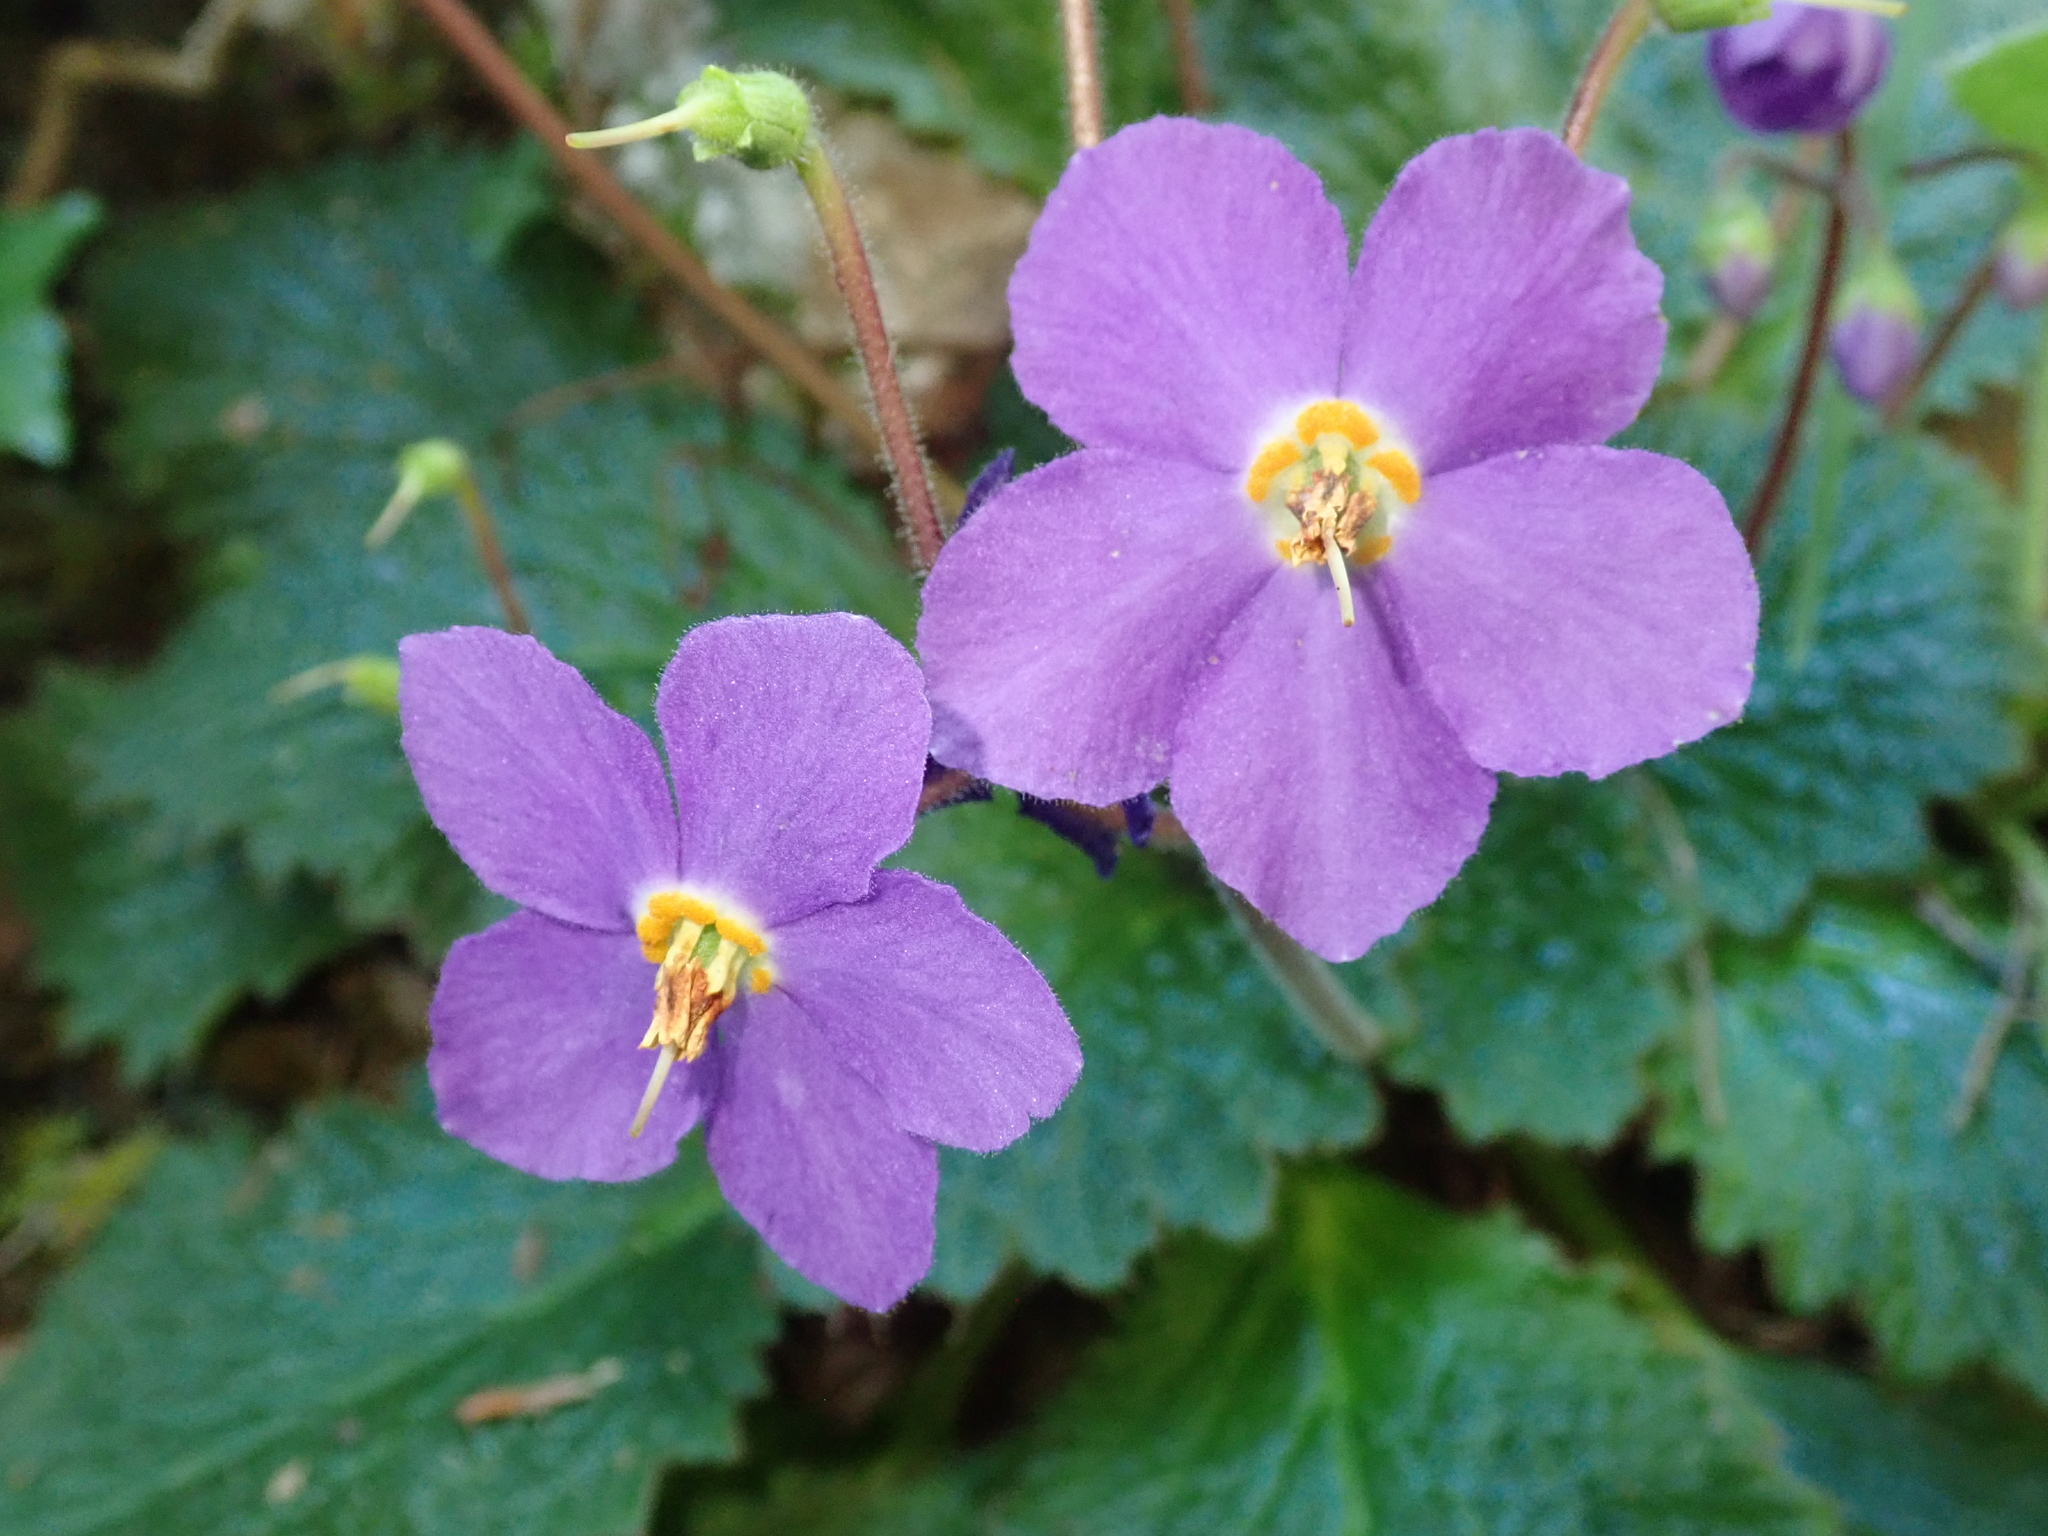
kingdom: Plantae
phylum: Tracheophyta
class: Magnoliopsida
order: Lamiales
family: Gesneriaceae
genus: Ramonda
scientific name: Ramonda myconi
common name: Pyrenean-violet
